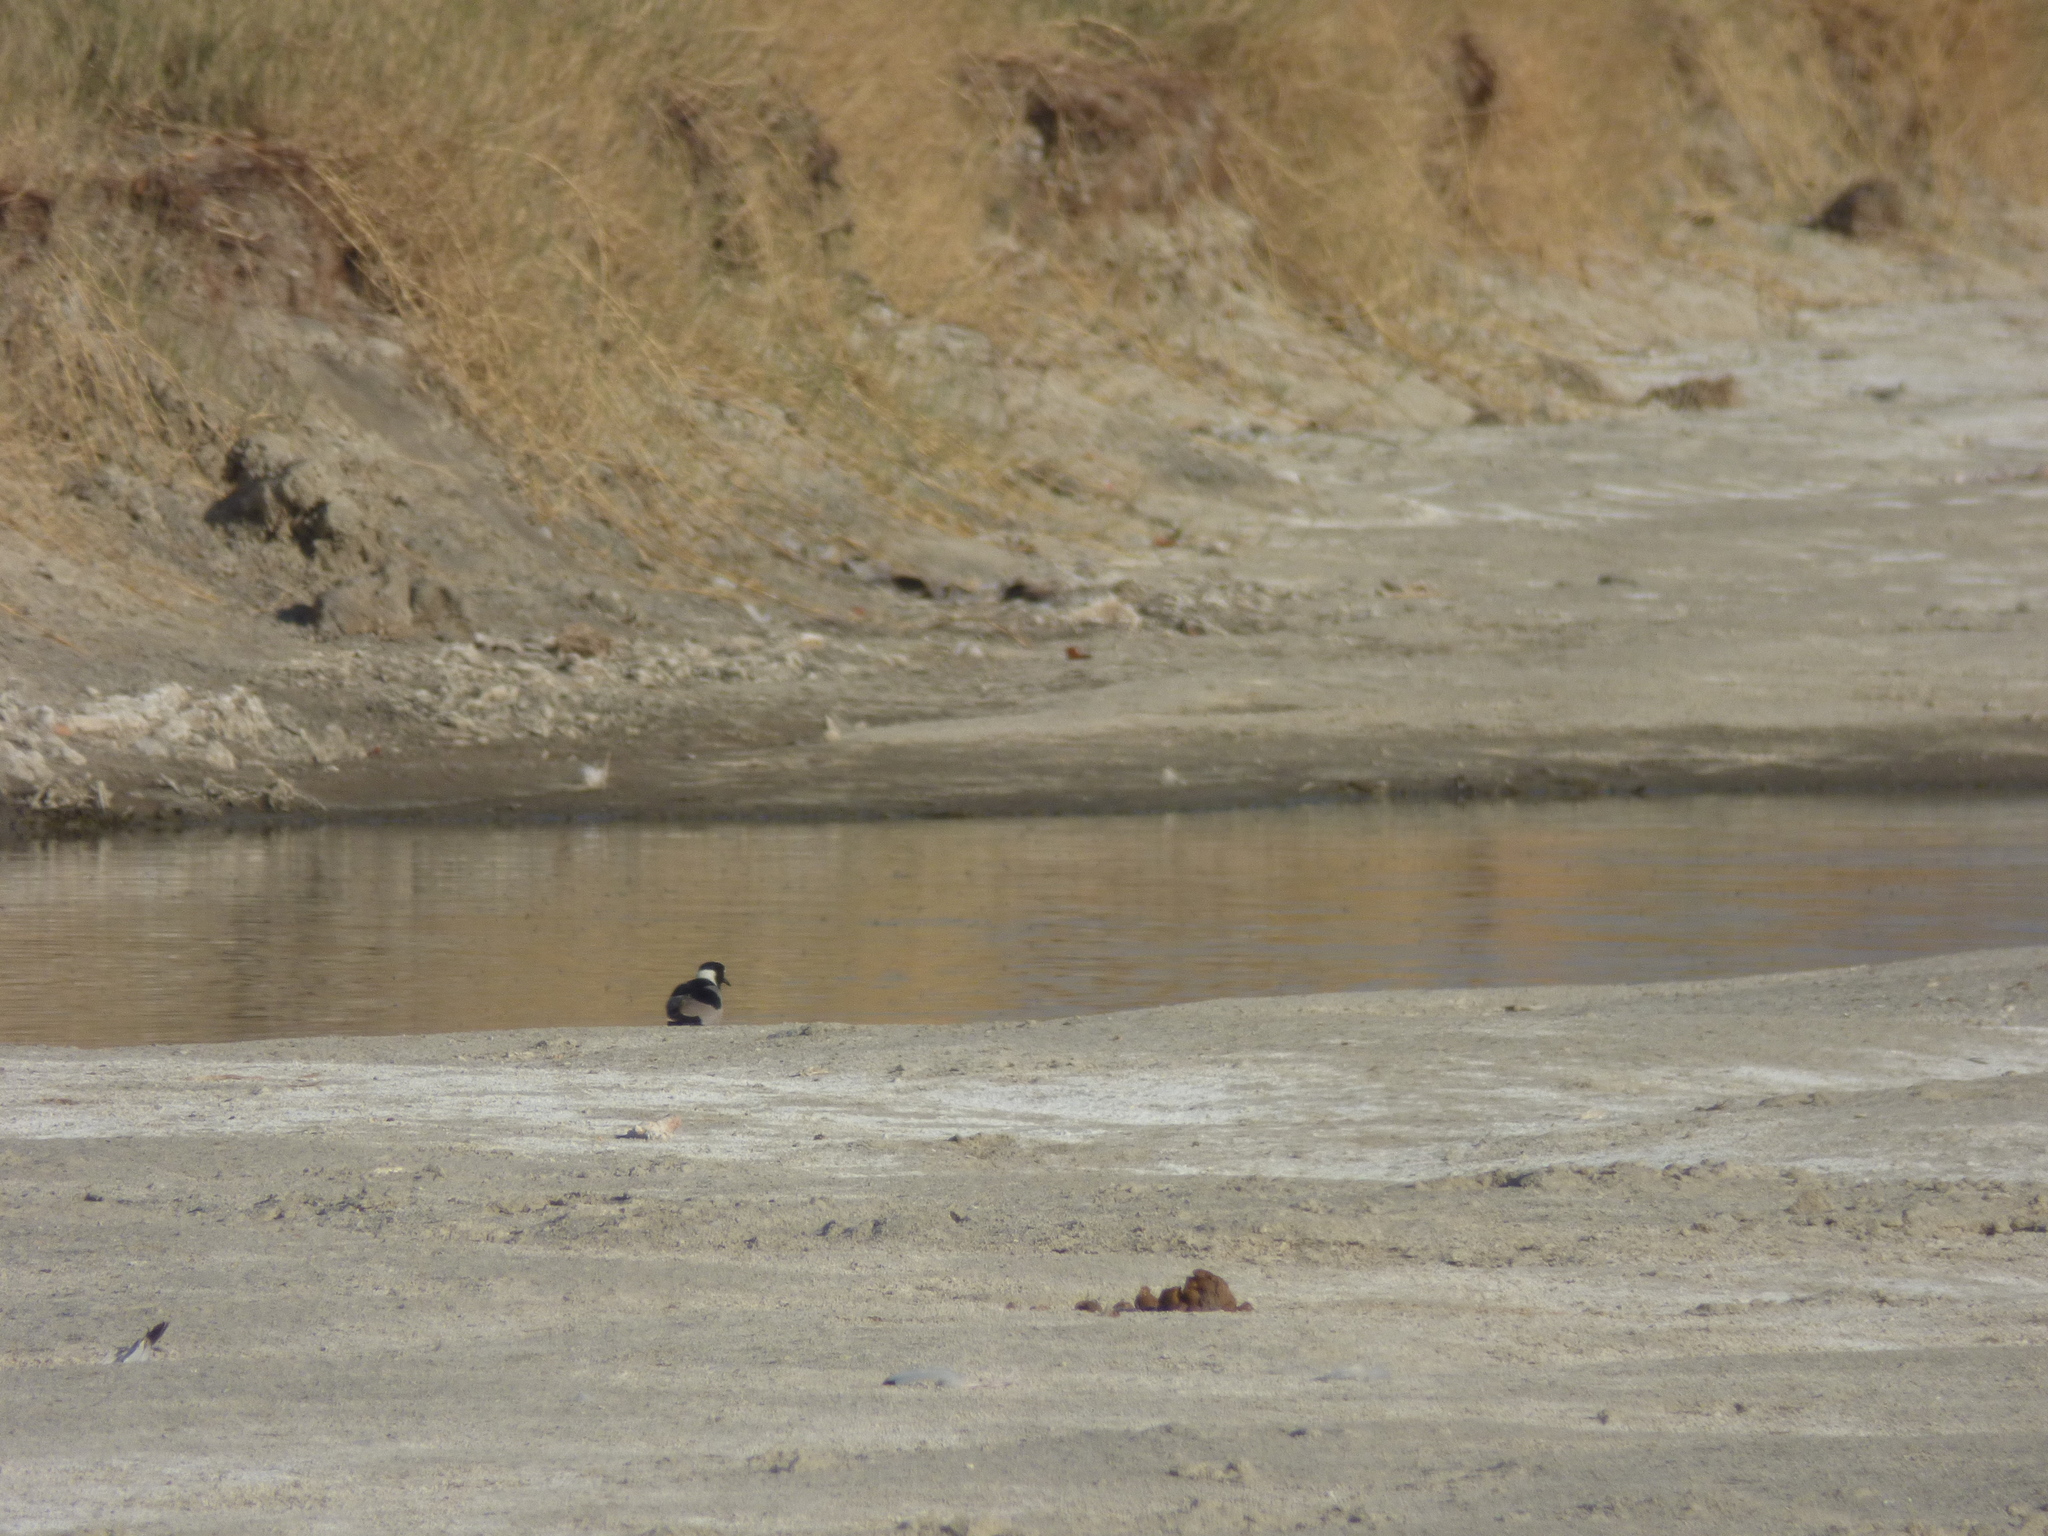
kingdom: Animalia
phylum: Chordata
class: Aves
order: Charadriiformes
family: Charadriidae
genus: Vanellus
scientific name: Vanellus armatus
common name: Blacksmith lapwing
